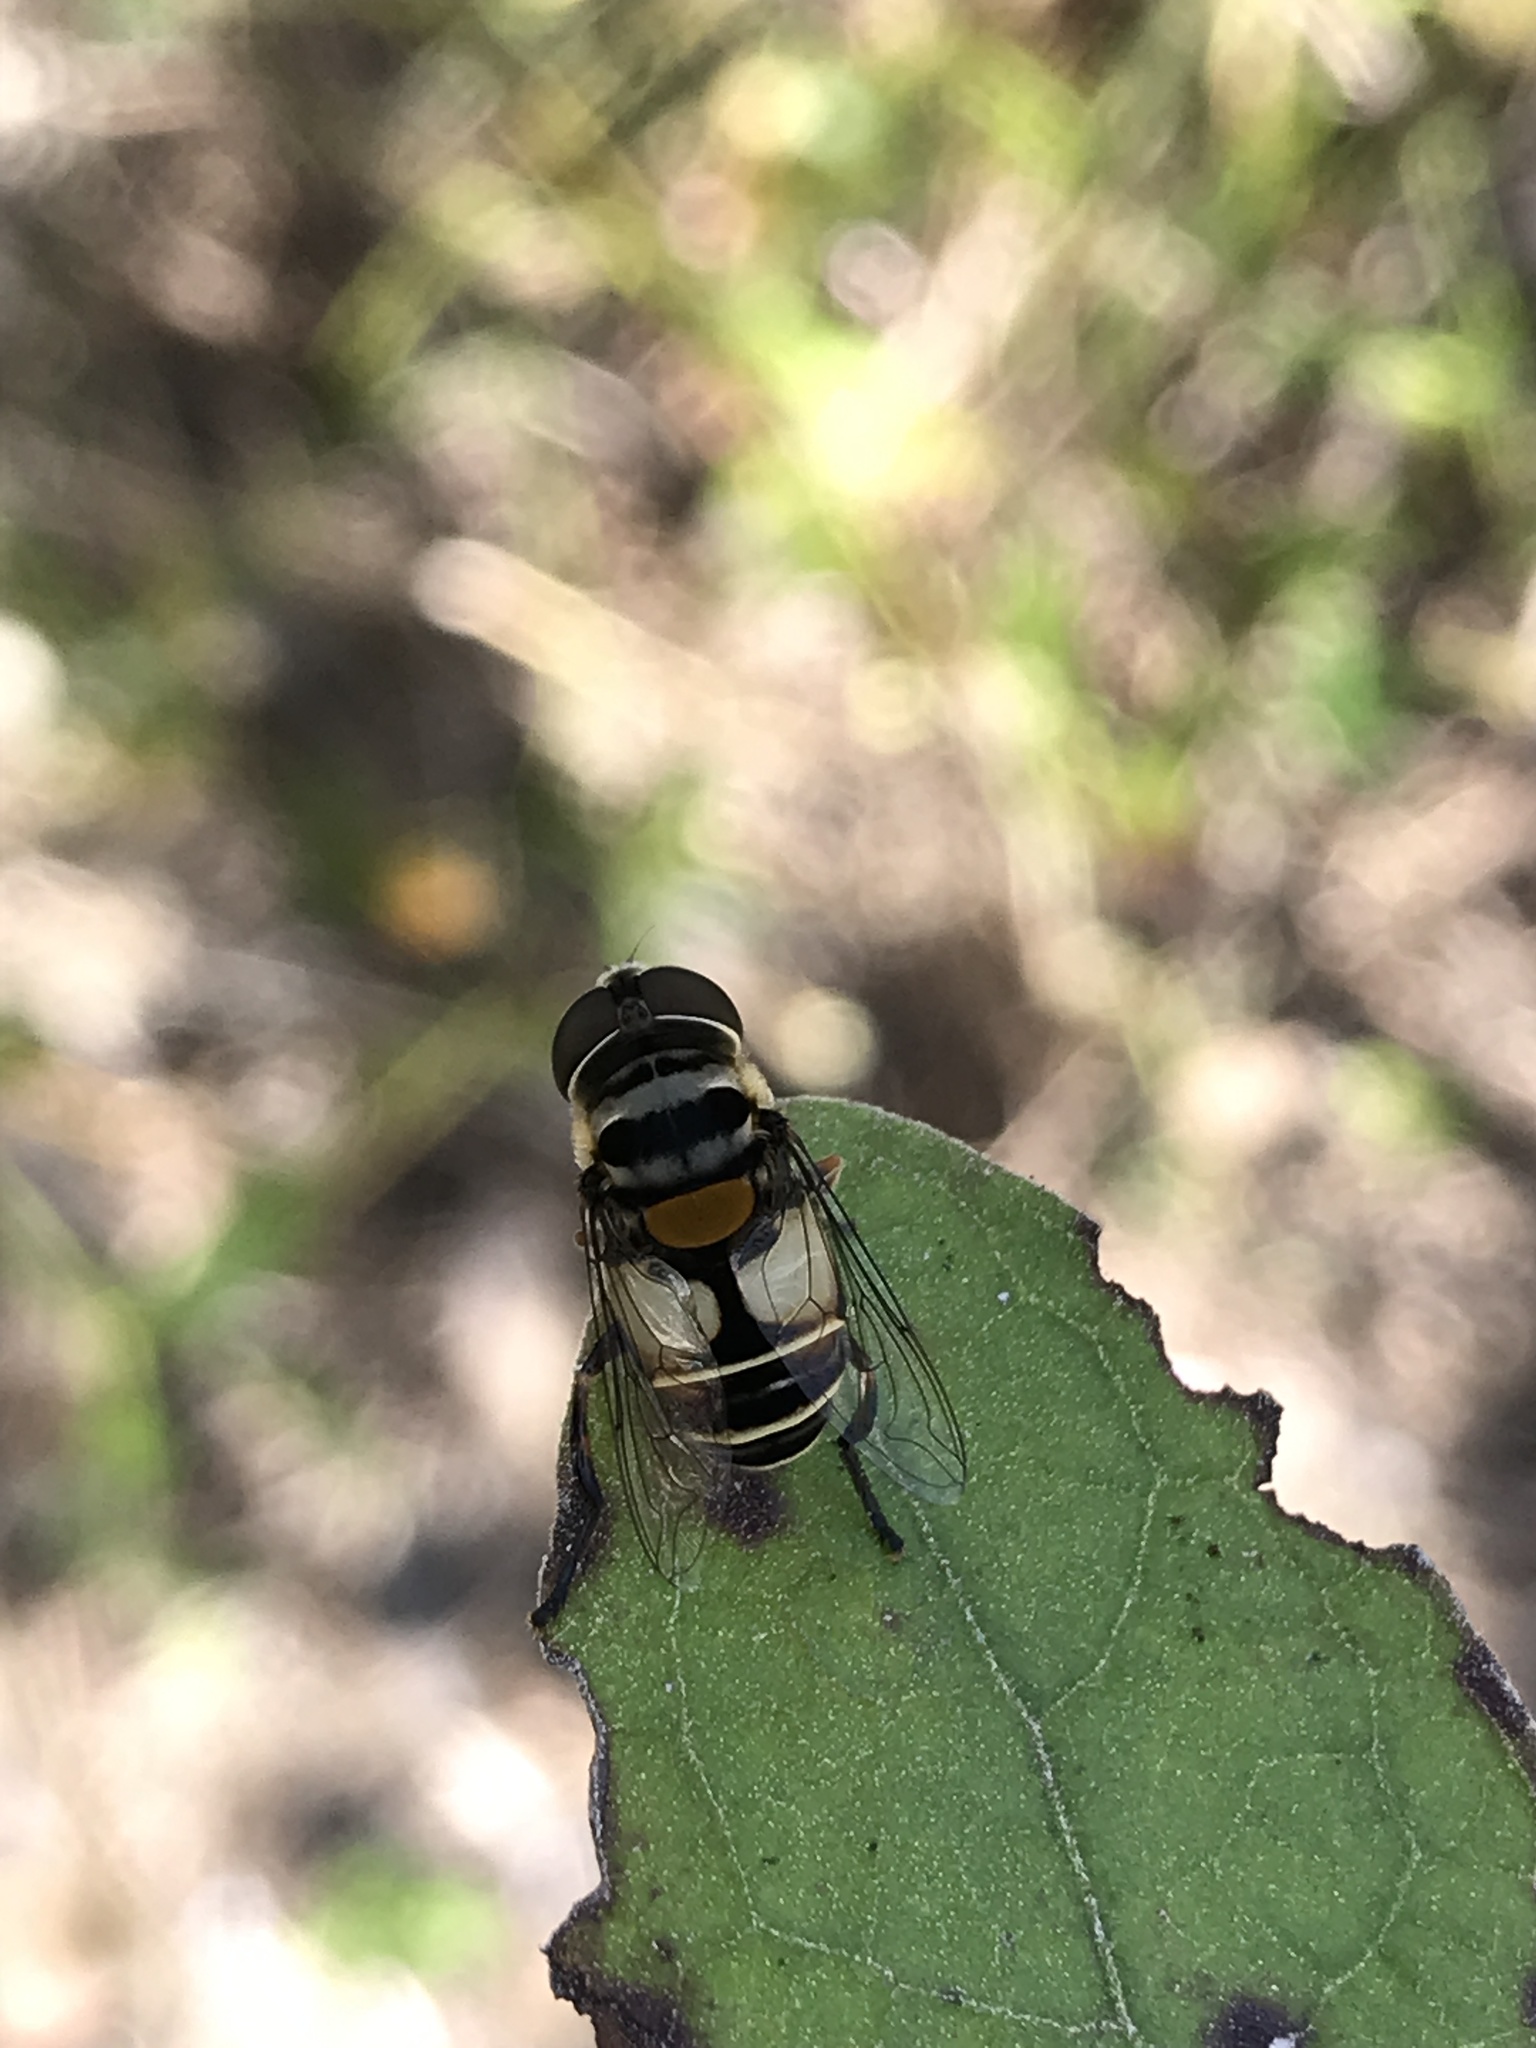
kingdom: Animalia
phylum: Arthropoda
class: Insecta
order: Diptera
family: Syrphidae
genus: Palpada
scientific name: Palpada albifrons
